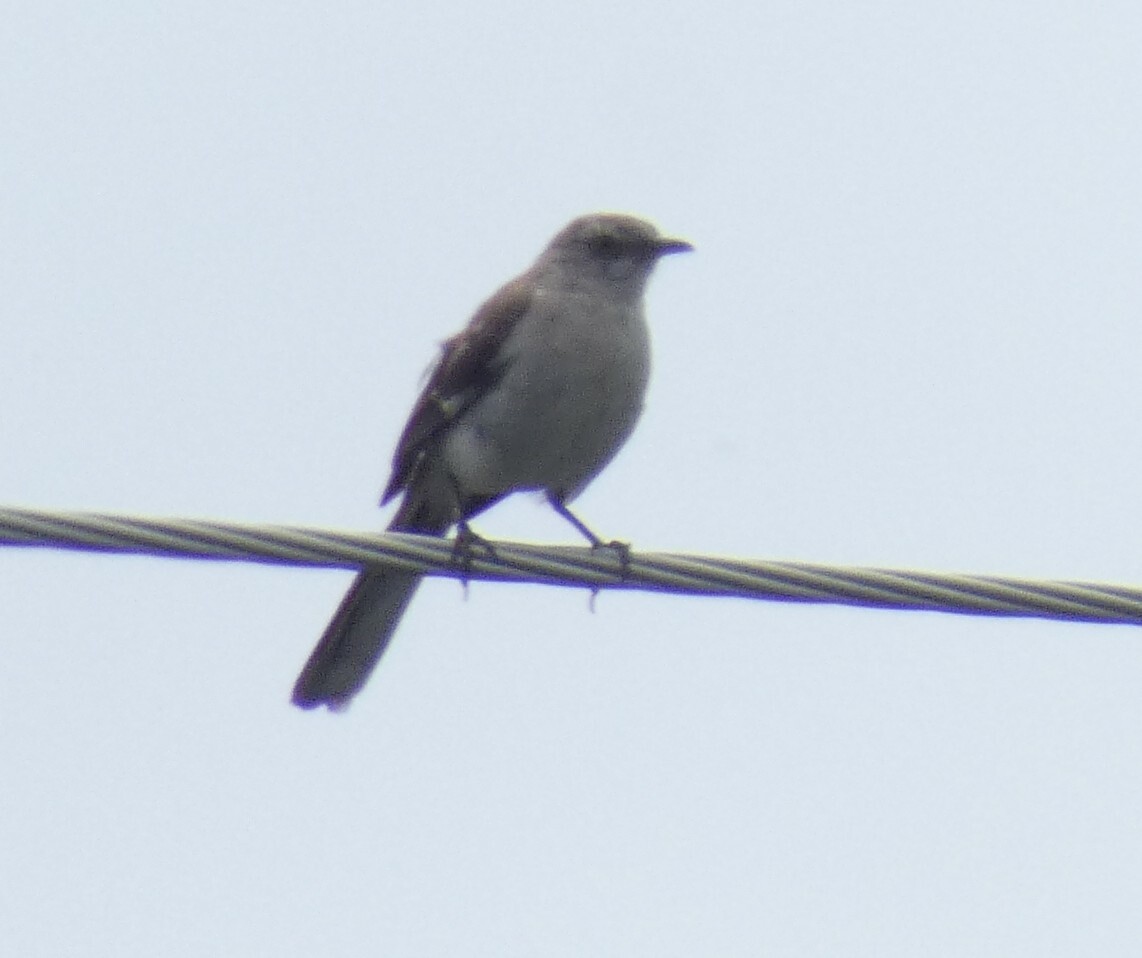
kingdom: Animalia
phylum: Chordata
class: Aves
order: Passeriformes
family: Mimidae
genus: Mimus
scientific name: Mimus polyglottos
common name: Northern mockingbird
